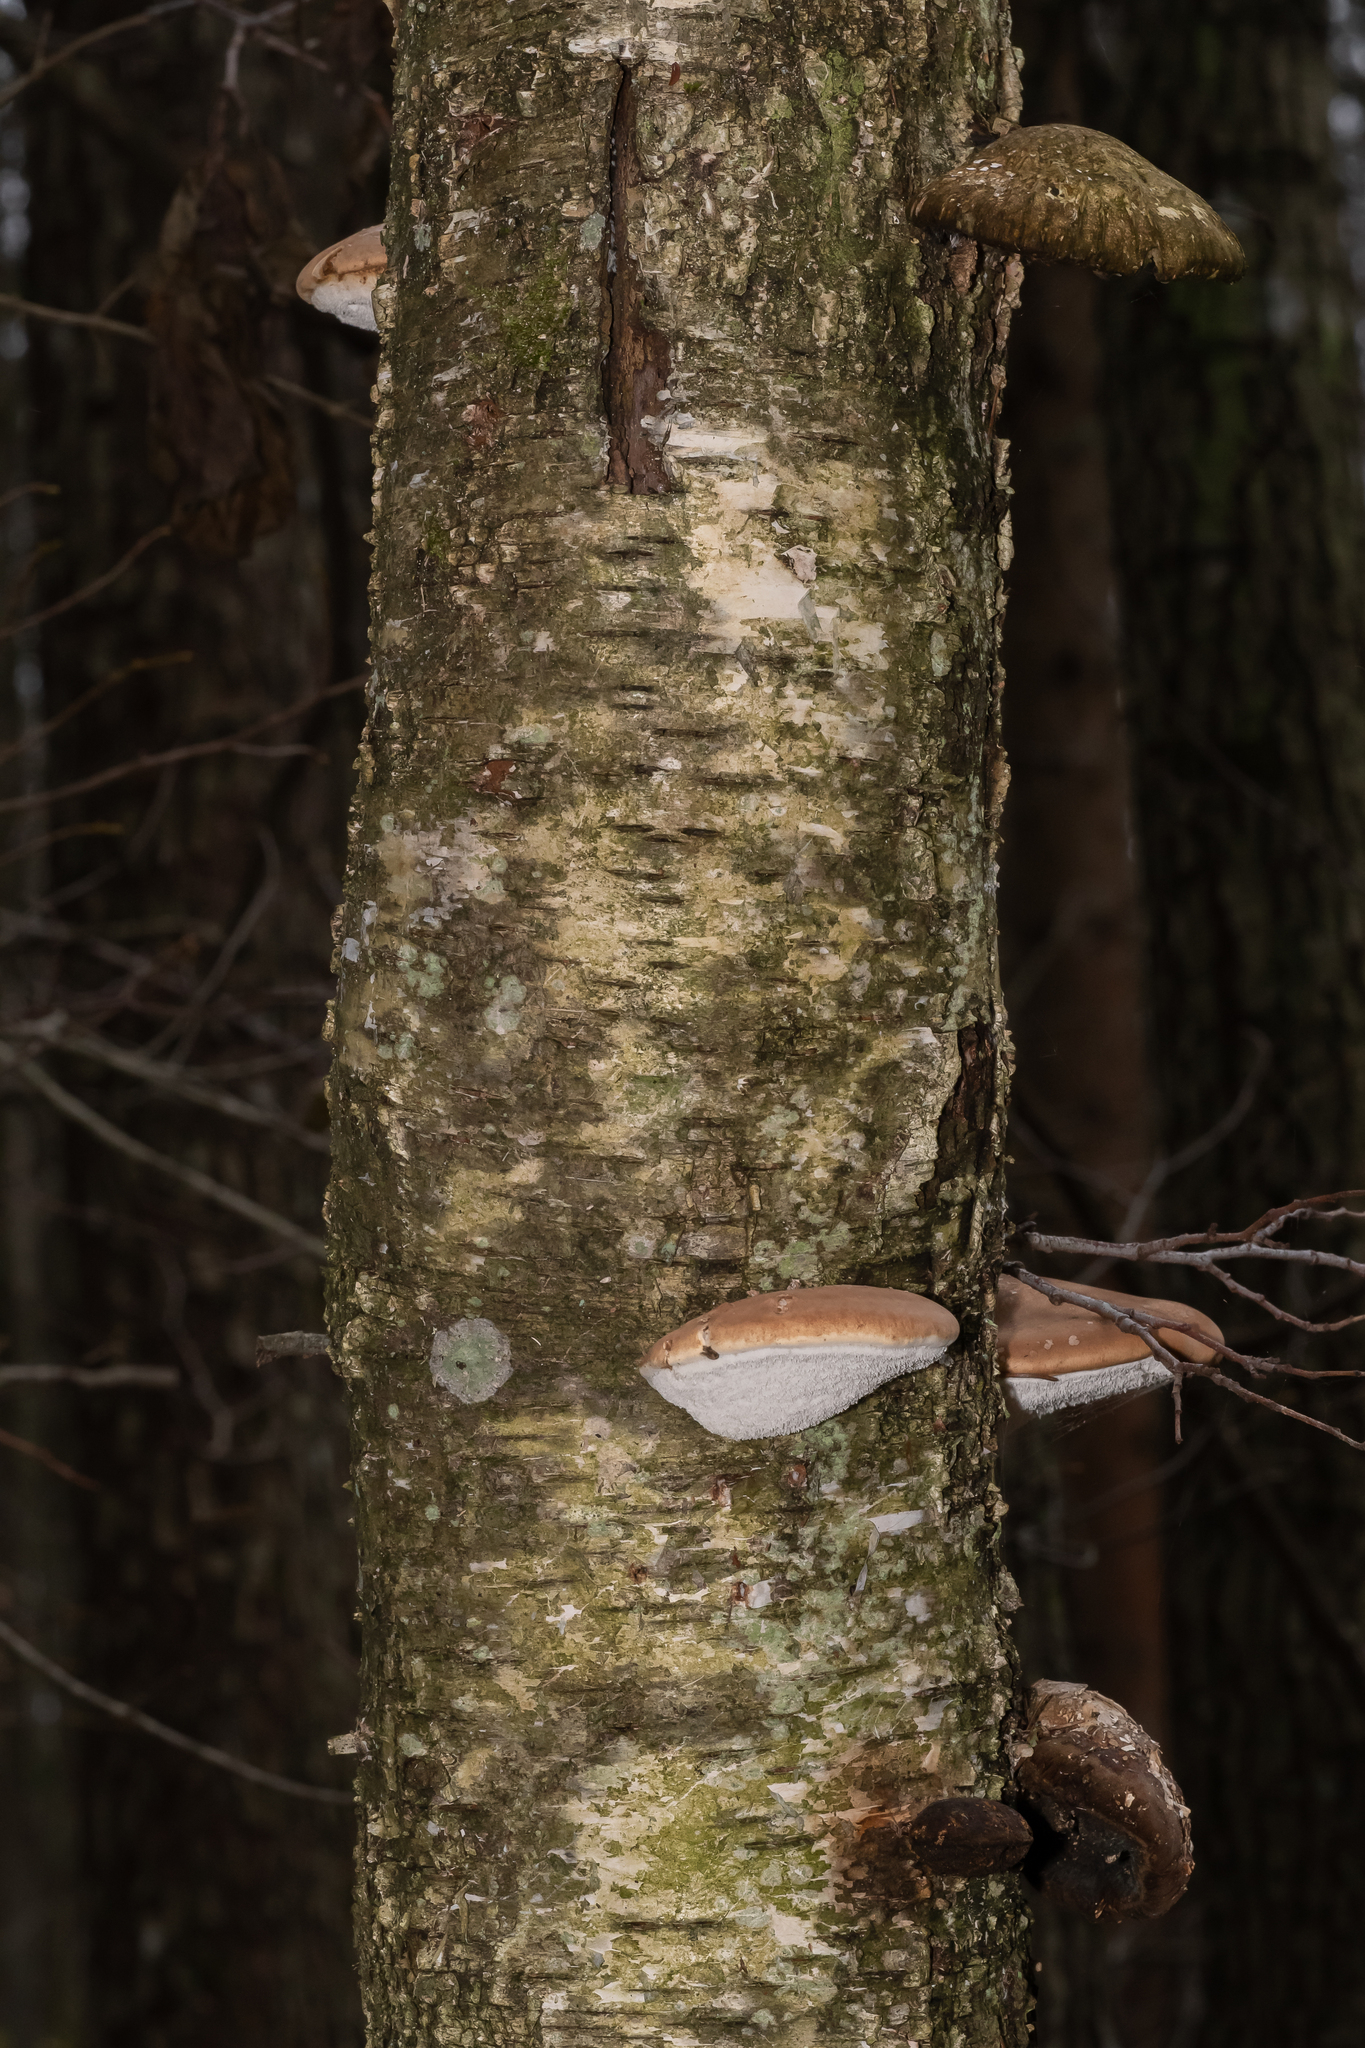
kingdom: Fungi
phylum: Basidiomycota
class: Agaricomycetes
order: Polyporales
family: Fomitopsidaceae
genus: Fomitopsis
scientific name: Fomitopsis betulina
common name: Birch polypore
